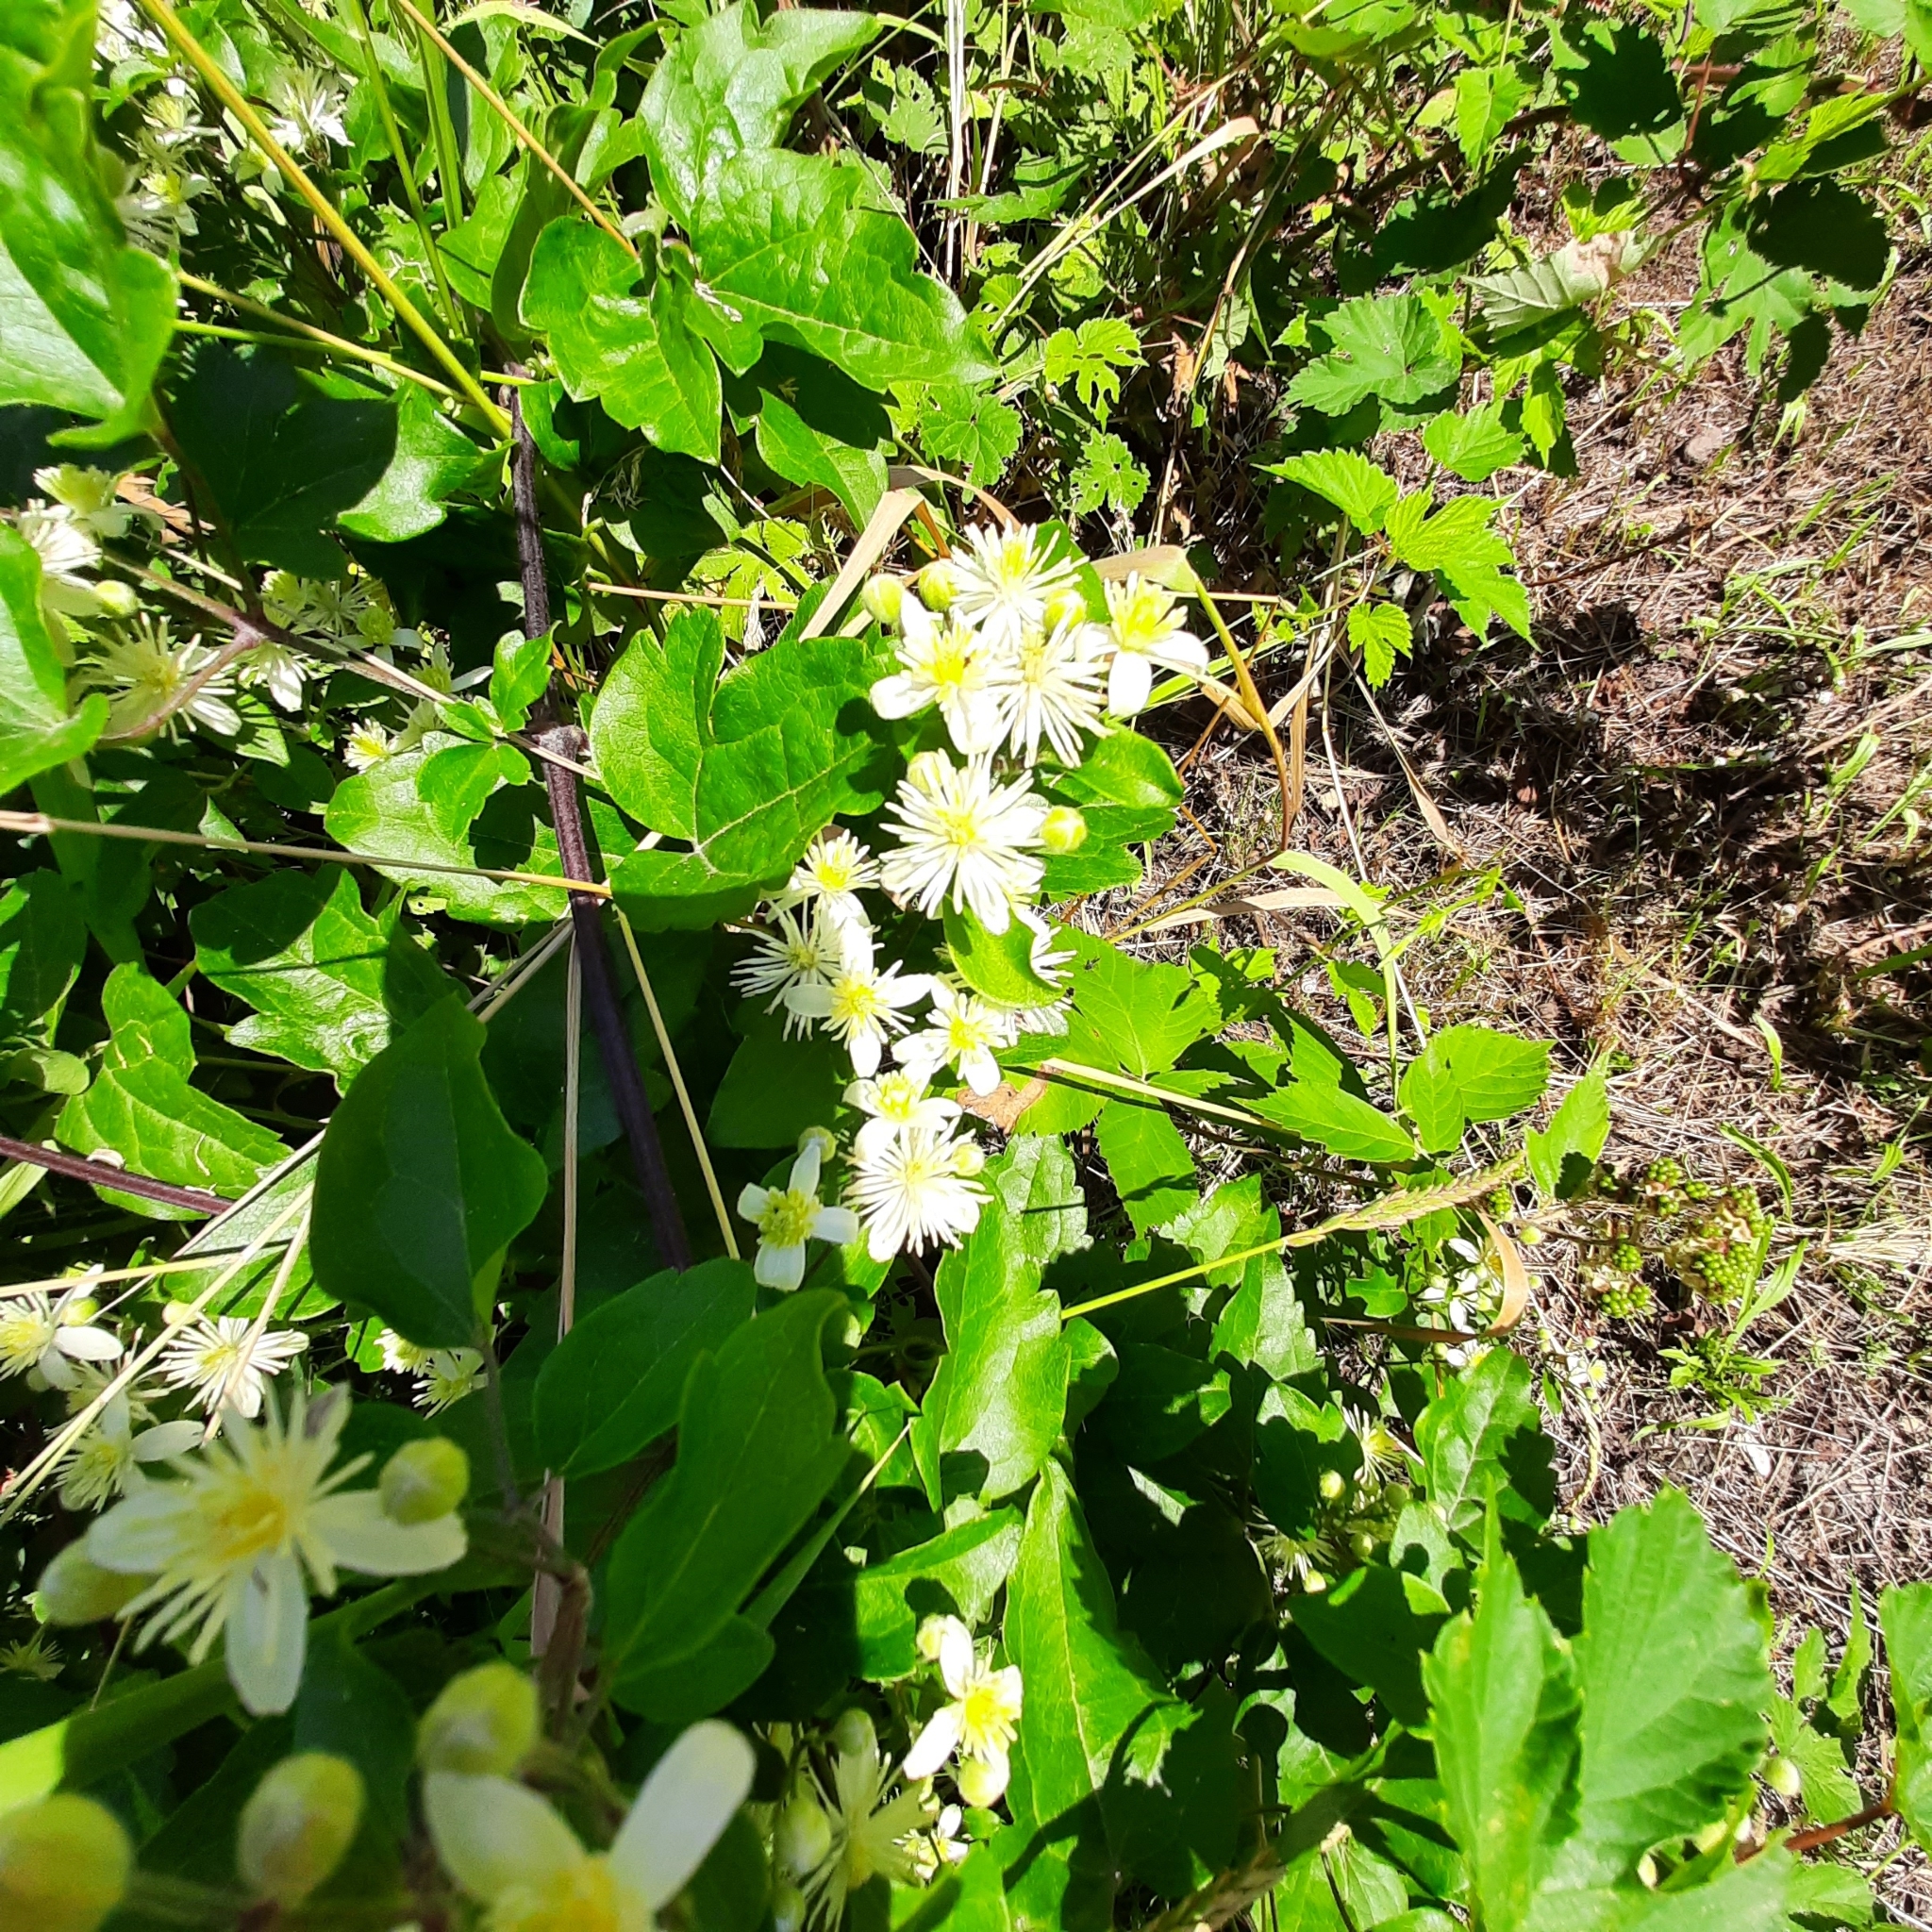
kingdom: Plantae
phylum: Tracheophyta
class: Magnoliopsida
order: Ranunculales
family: Ranunculaceae
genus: Clematis
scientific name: Clematis vitalba
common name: Evergreen clematis
